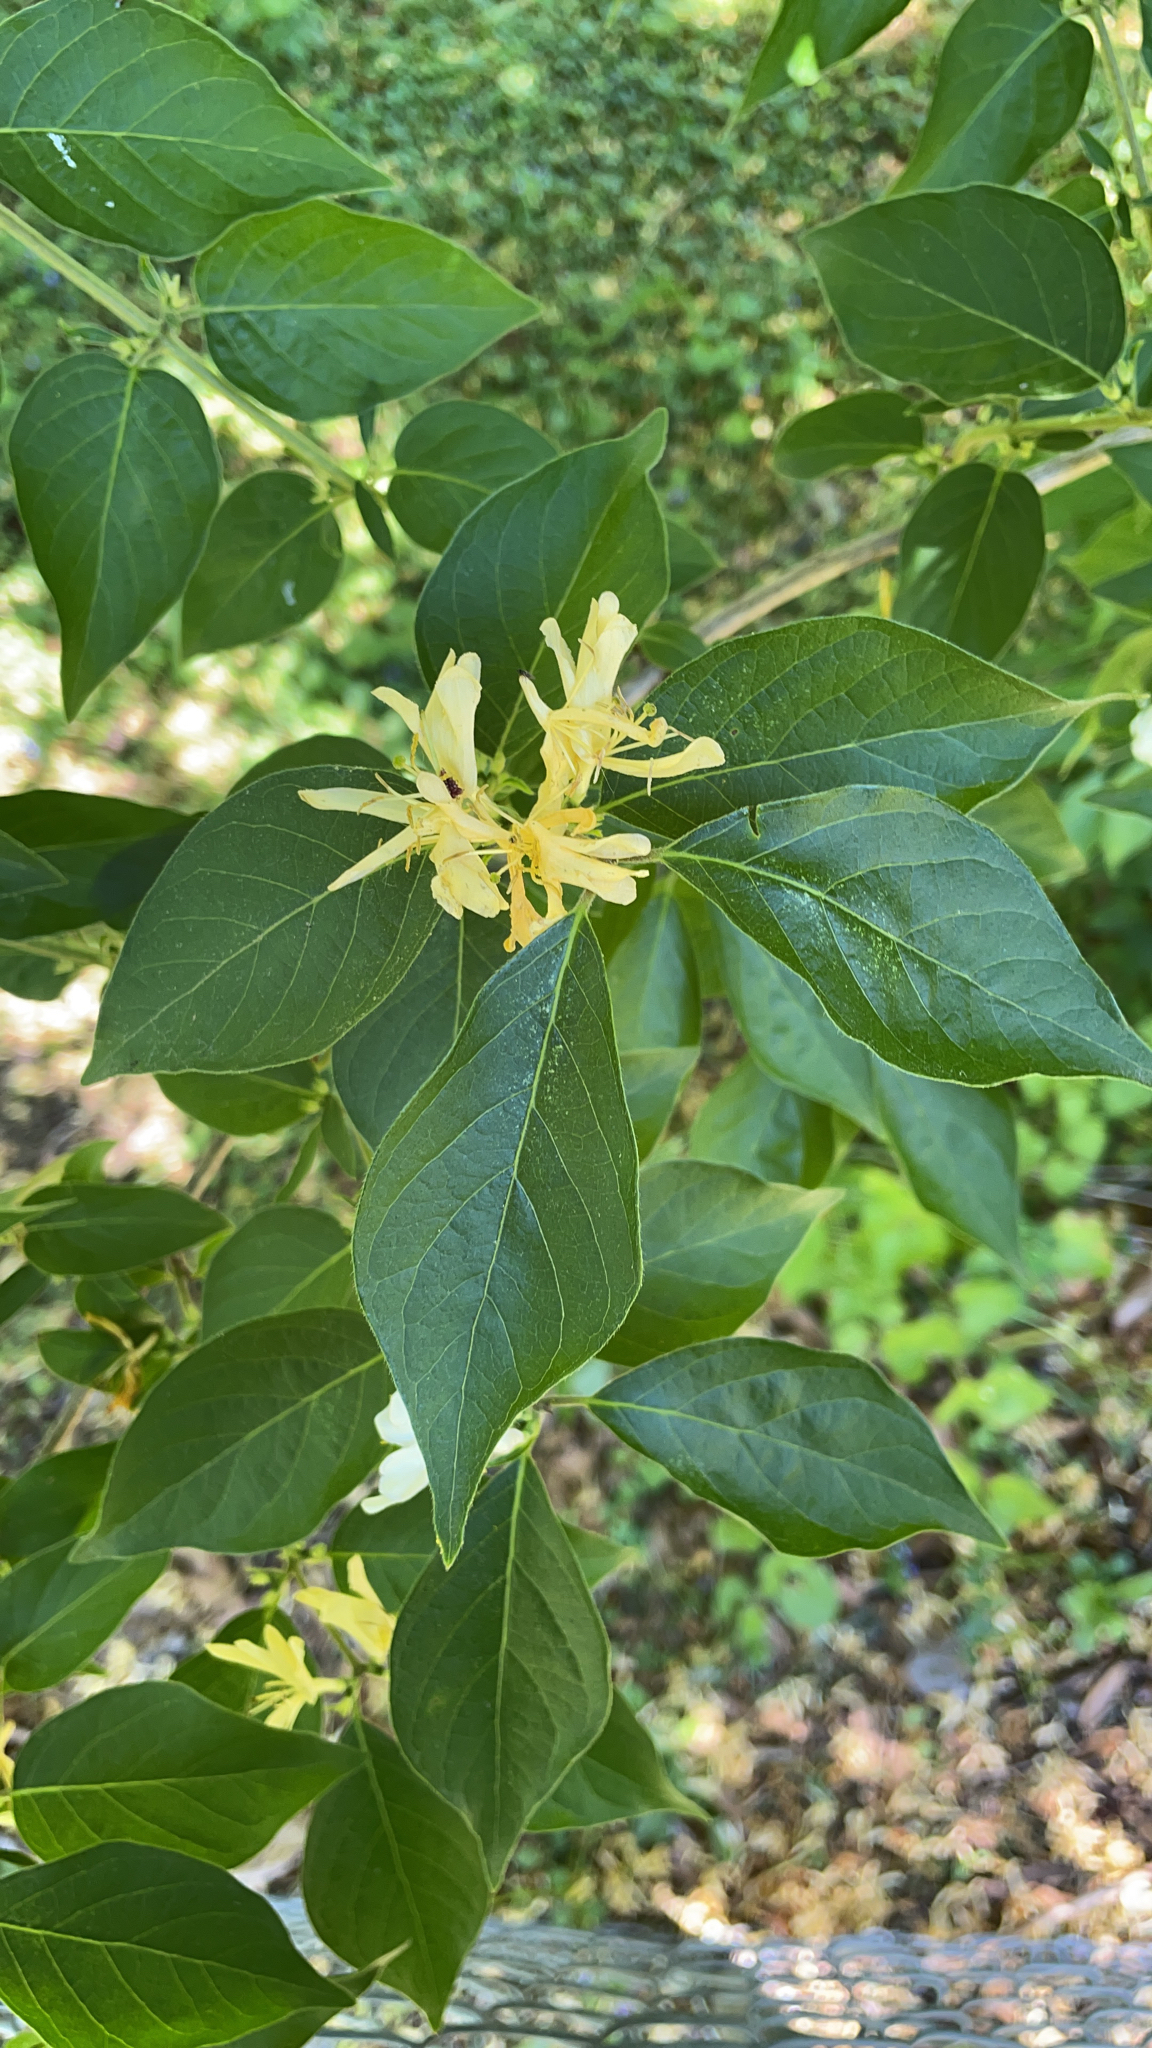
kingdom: Plantae
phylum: Tracheophyta
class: Magnoliopsida
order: Dipsacales
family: Caprifoliaceae
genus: Lonicera
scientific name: Lonicera maackii
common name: Amur honeysuckle
